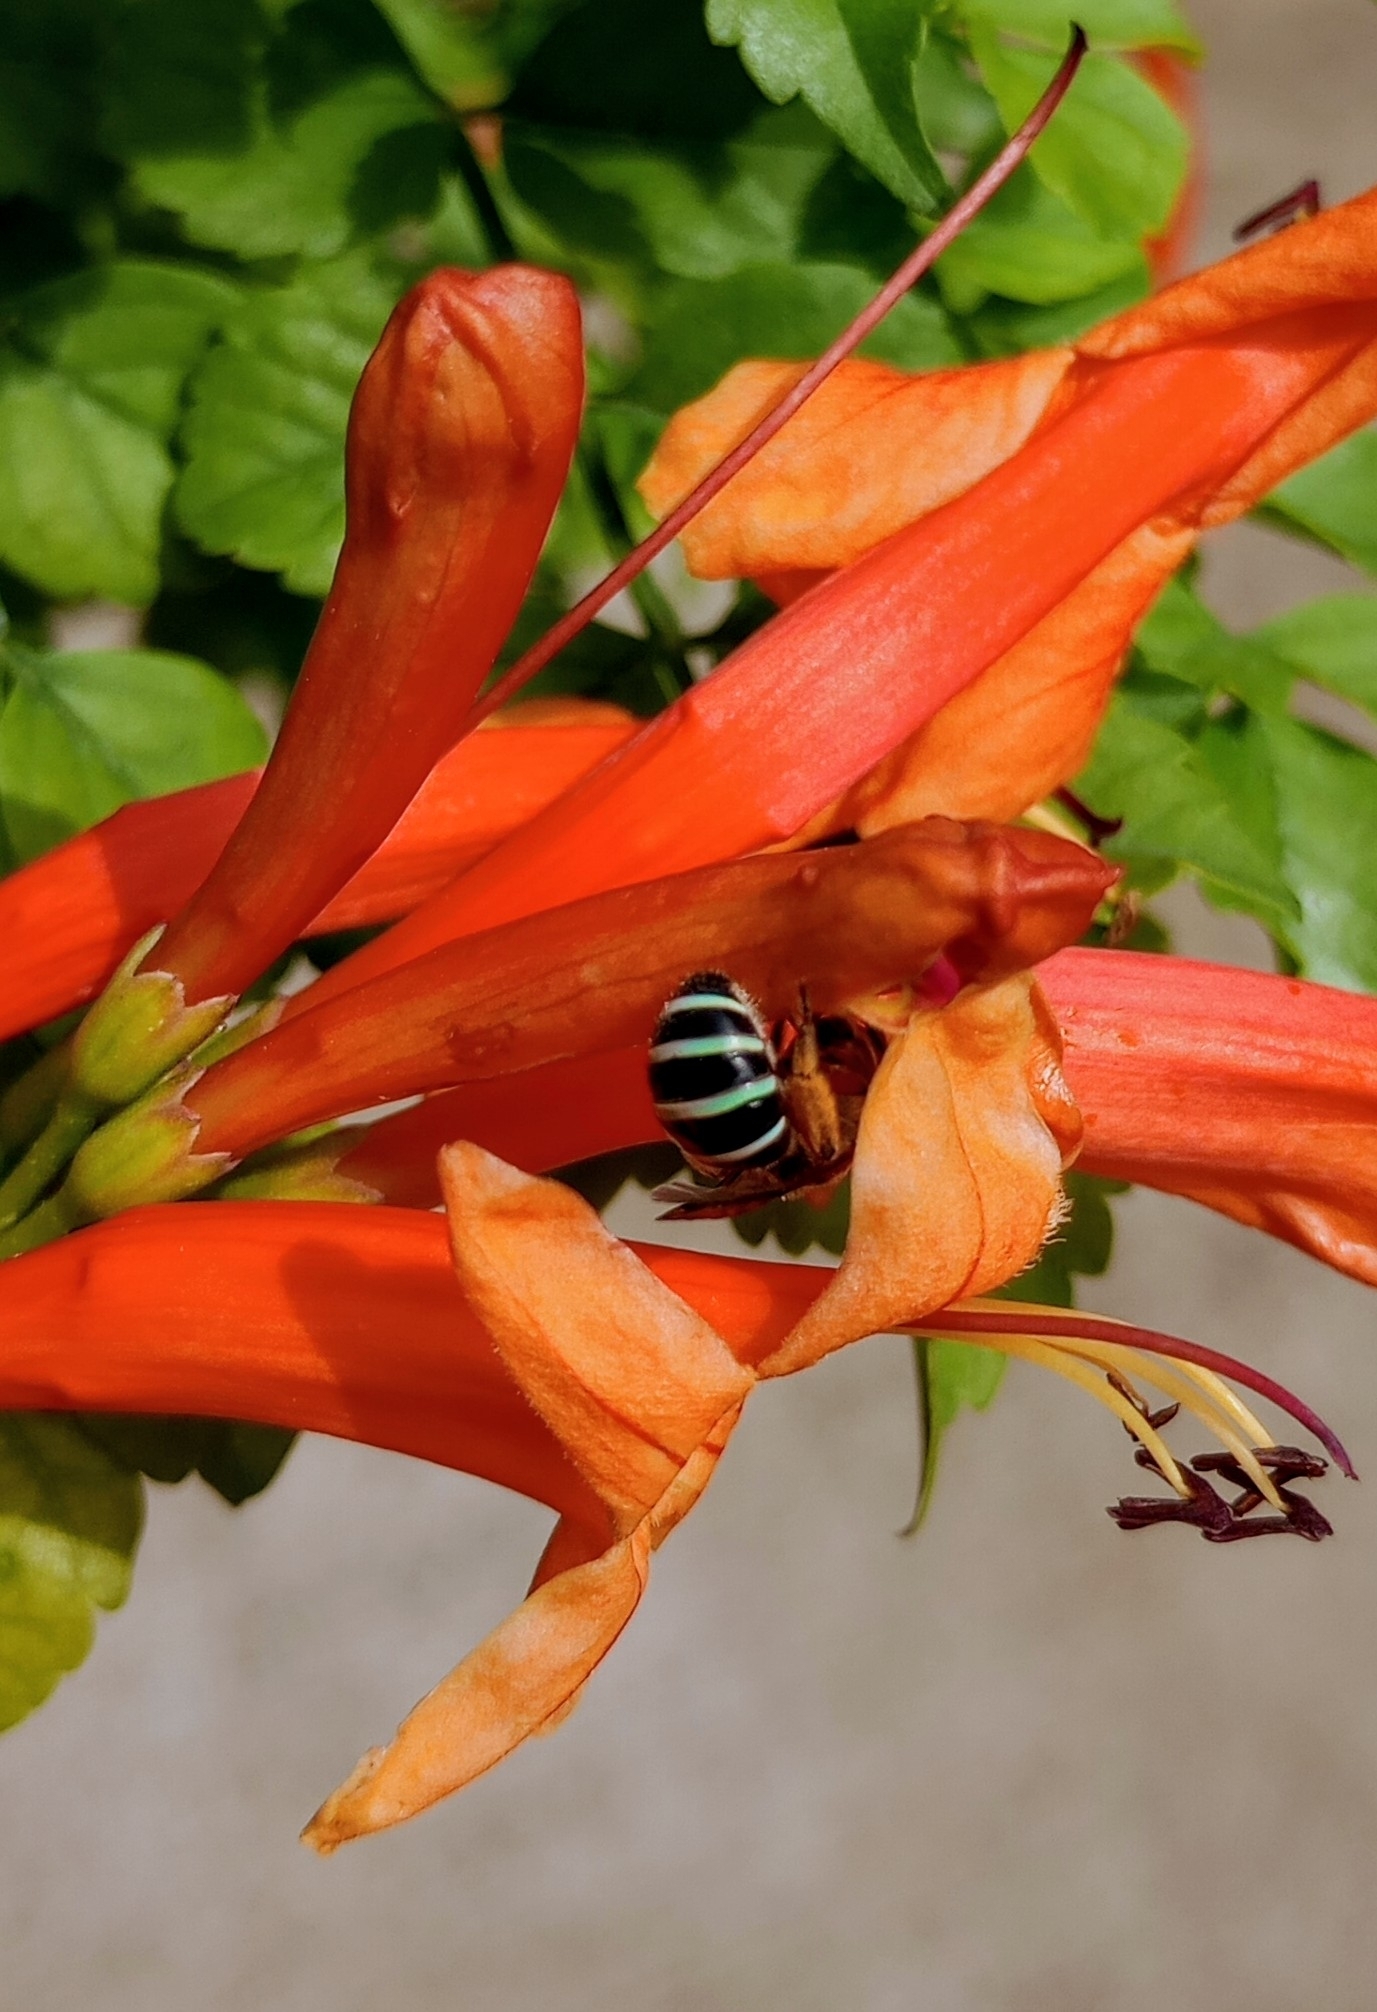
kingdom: Animalia
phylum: Arthropoda
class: Insecta
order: Hymenoptera
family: Halictidae
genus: Nomia
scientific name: Nomia westwoodi
